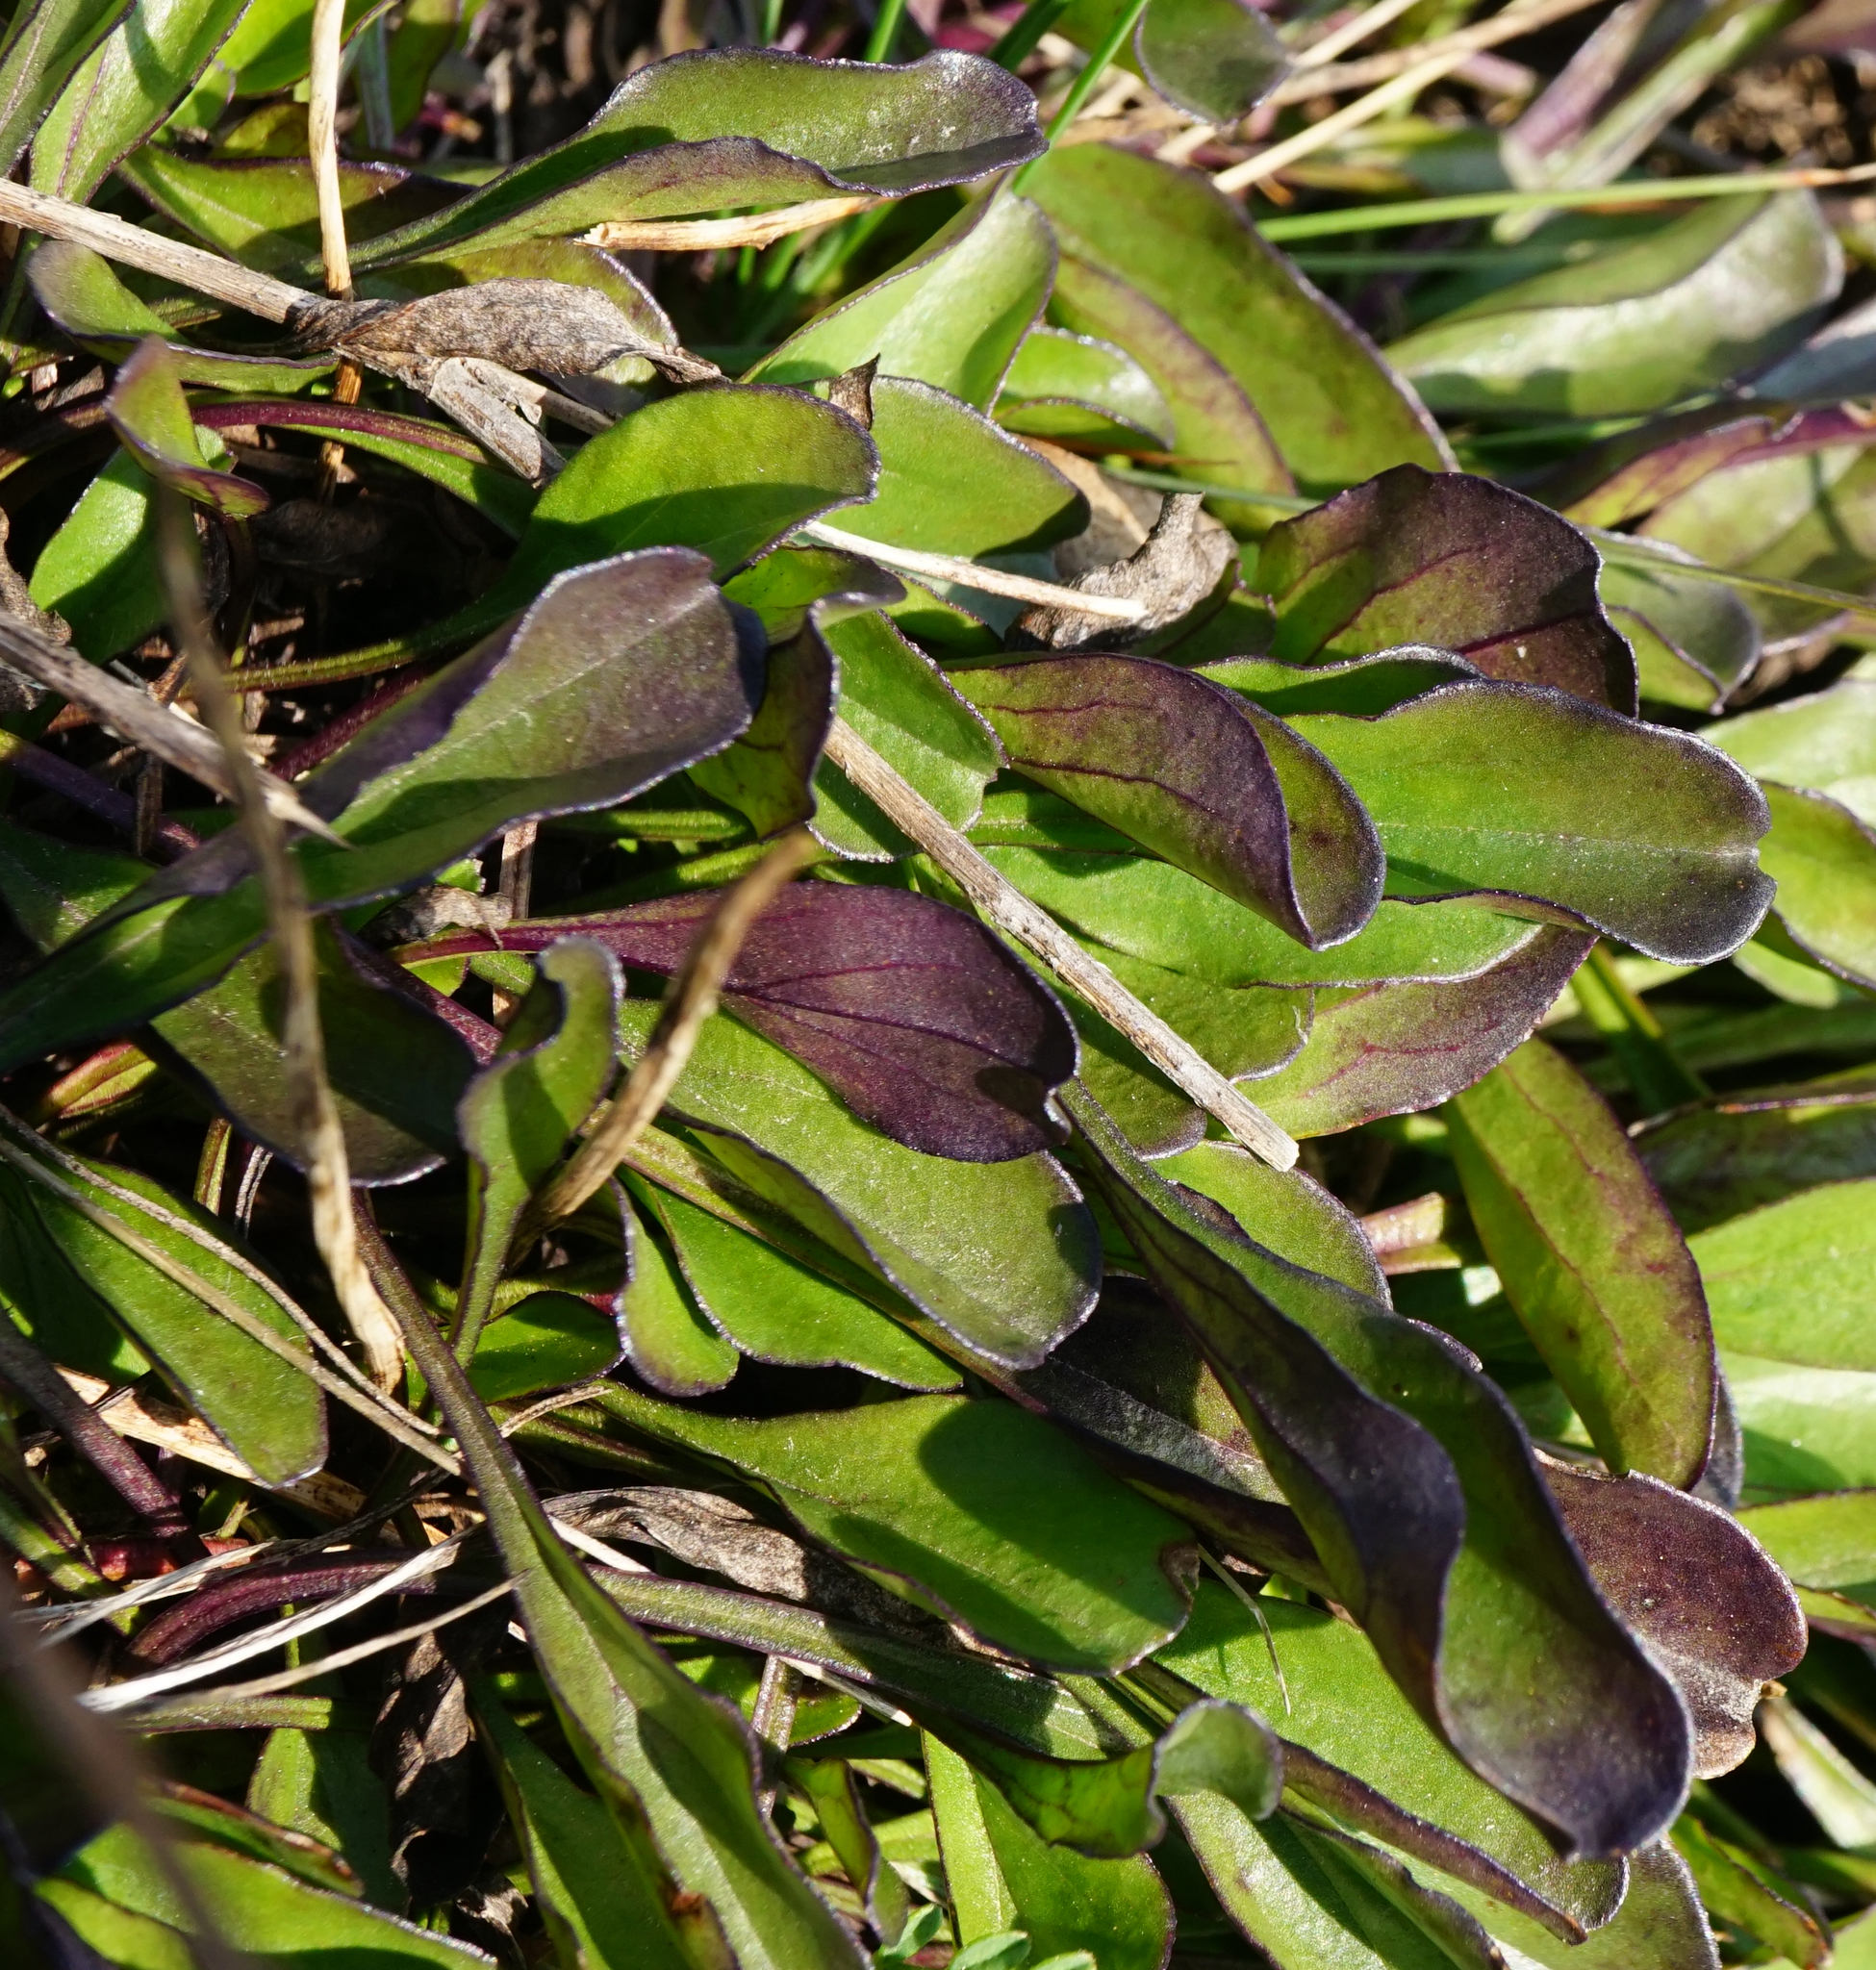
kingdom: Plantae
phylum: Tracheophyta
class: Magnoliopsida
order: Lamiales
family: Plantaginaceae
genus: Globularia
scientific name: Globularia bisnagarica
